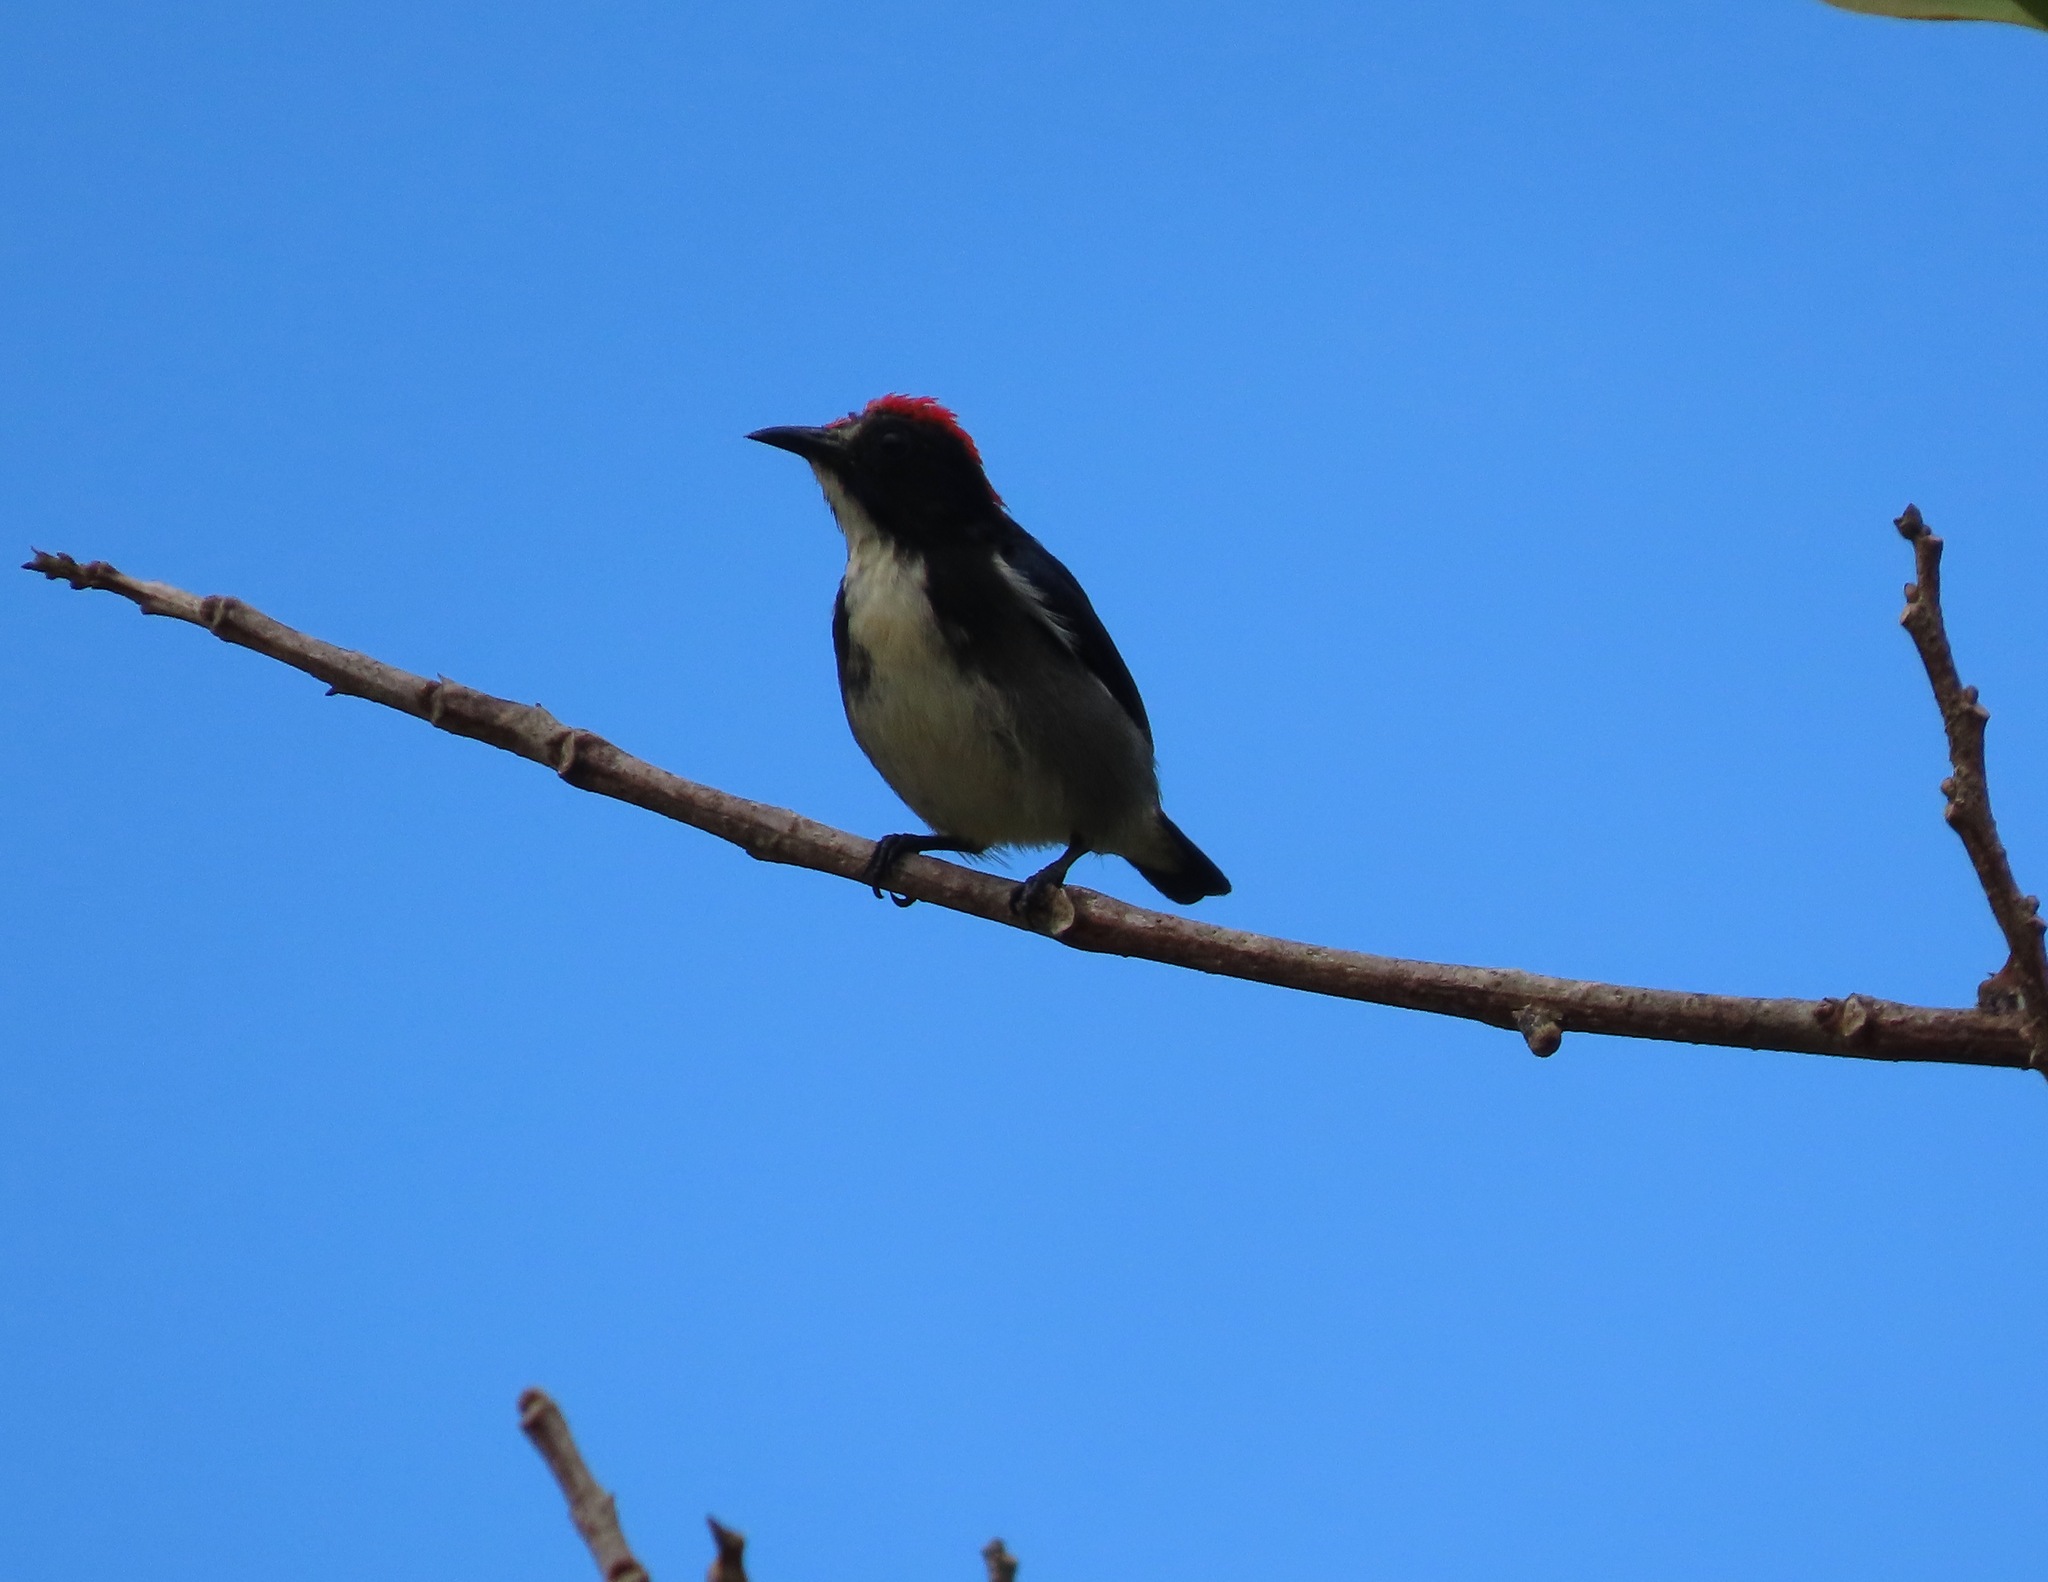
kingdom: Animalia
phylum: Chordata
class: Aves
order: Passeriformes
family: Dicaeidae
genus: Dicaeum
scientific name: Dicaeum cruentatum
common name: Scarlet-backed flowerpecker
